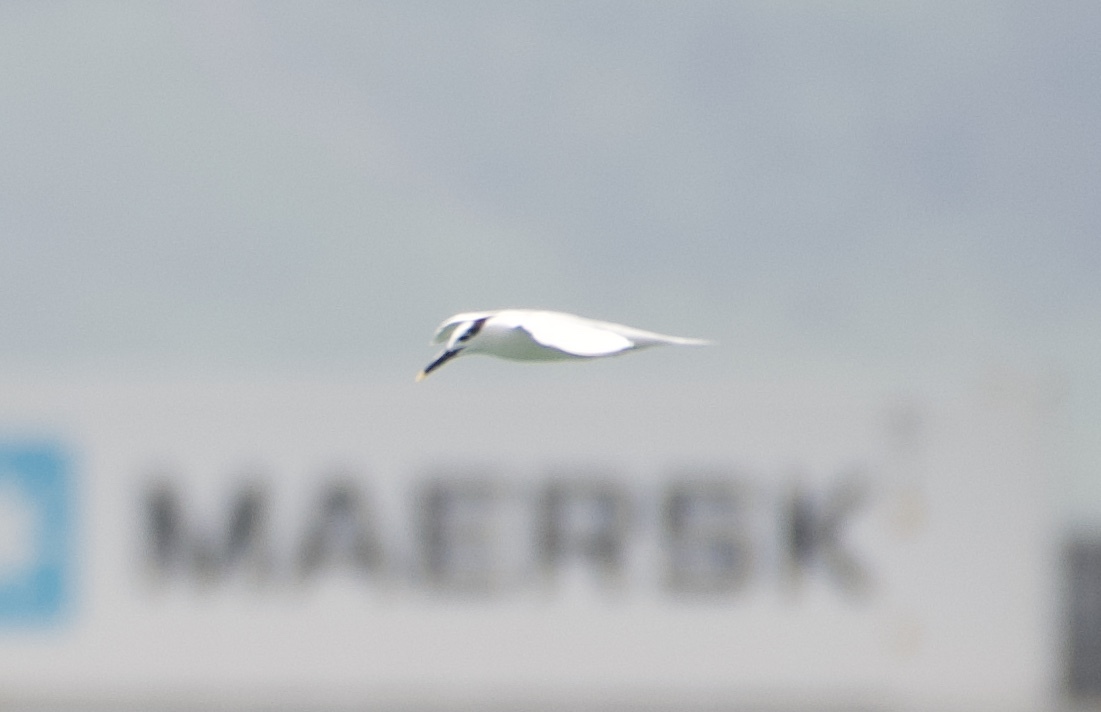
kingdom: Animalia
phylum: Chordata
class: Aves
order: Charadriiformes
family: Laridae
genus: Thalasseus
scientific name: Thalasseus sandvicensis
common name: Sandwich tern
